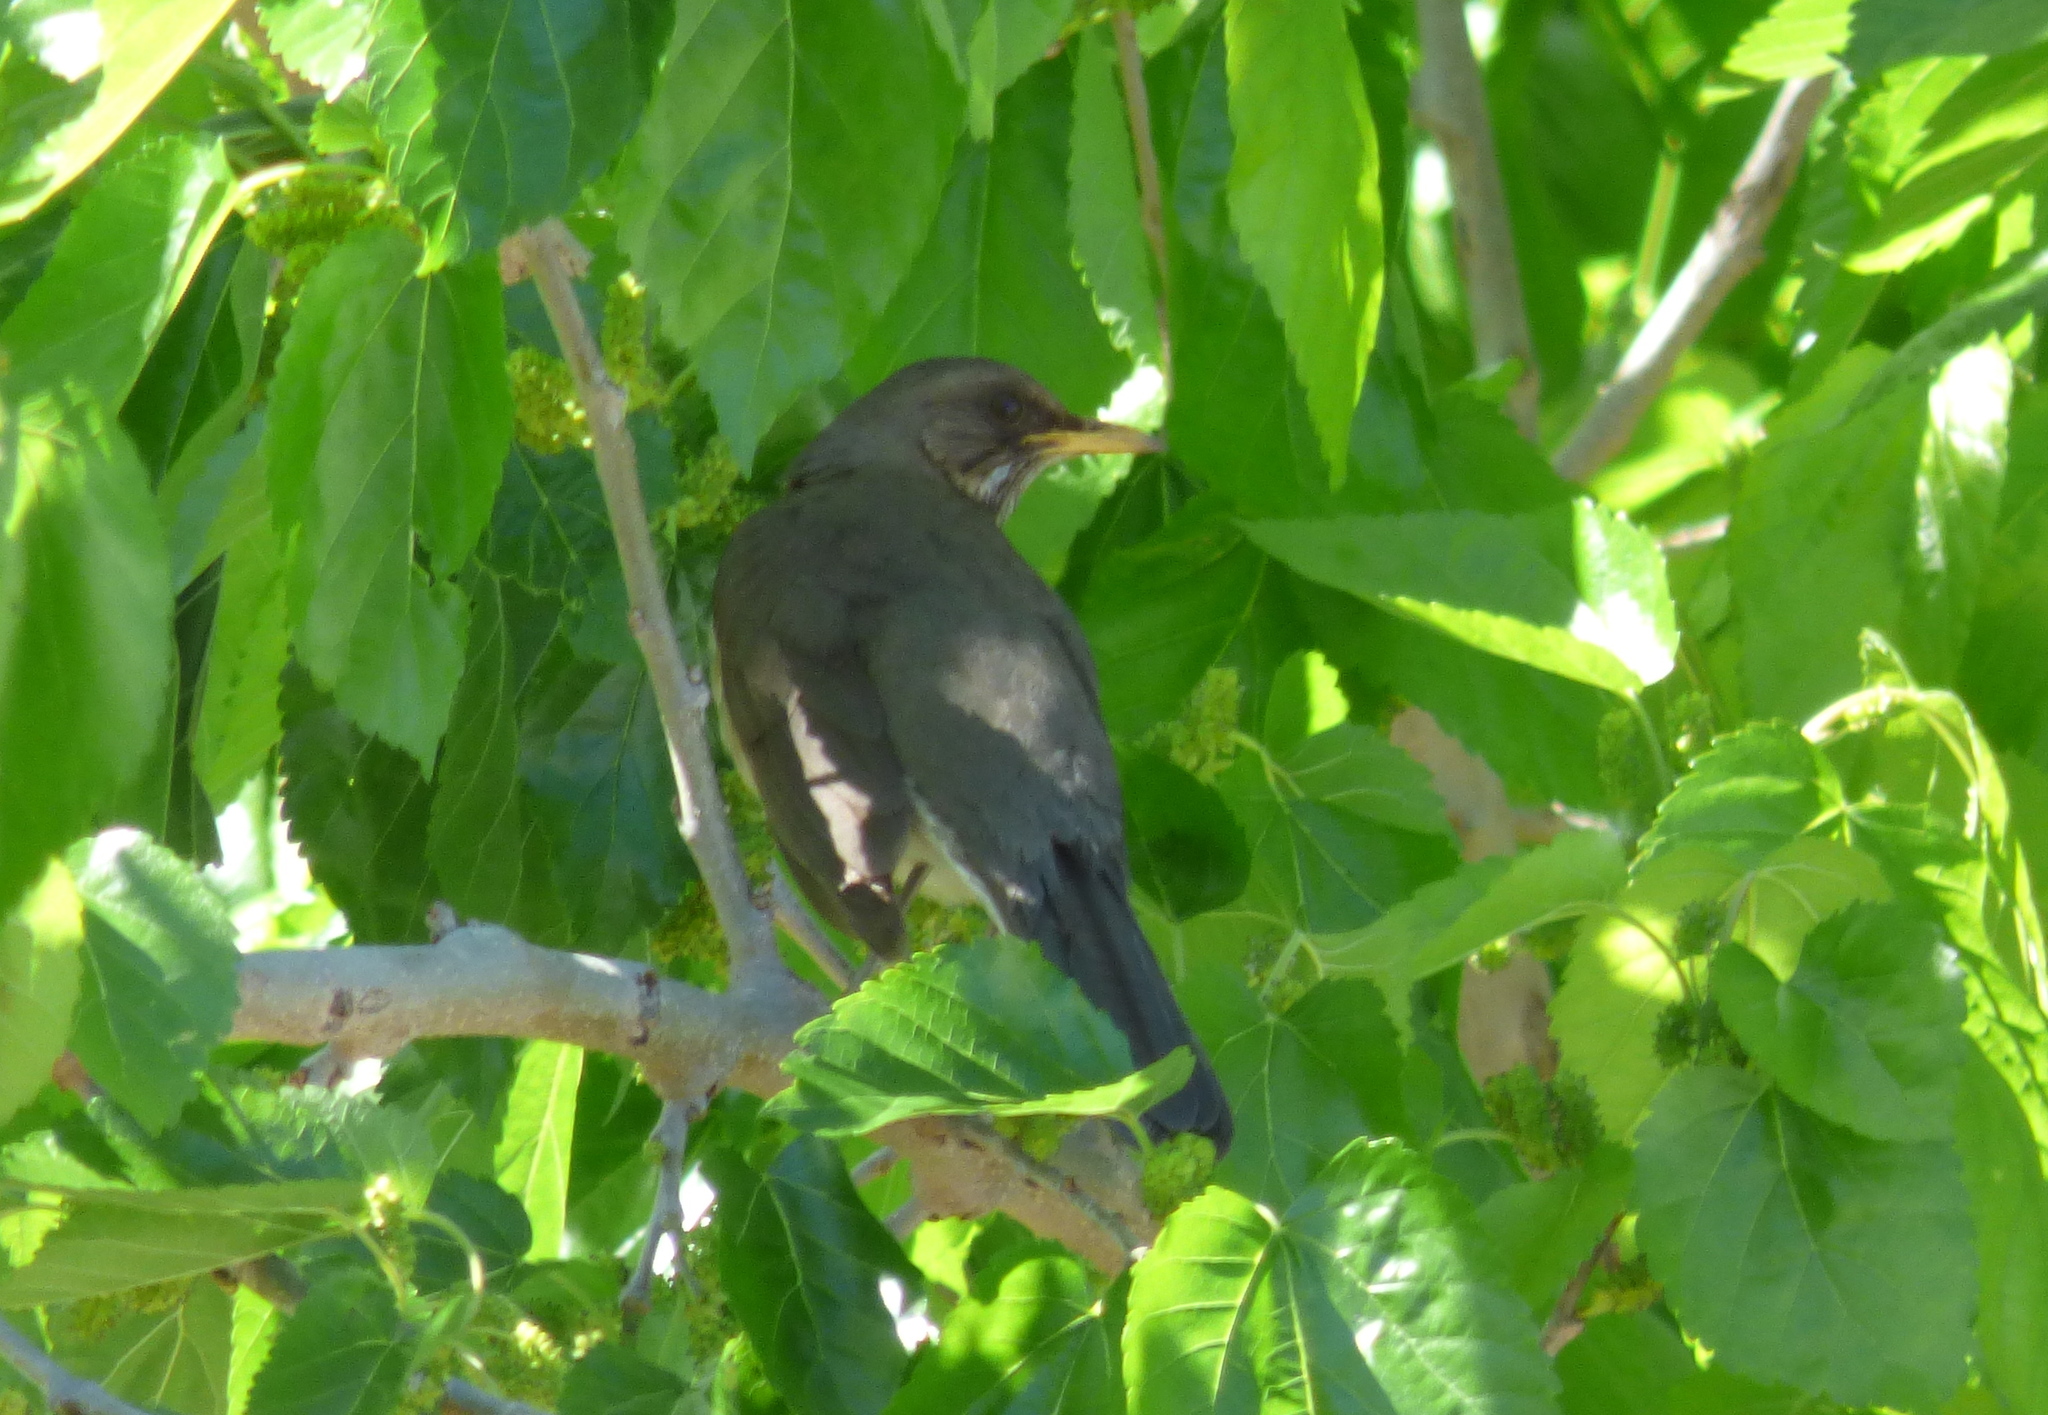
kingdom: Animalia
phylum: Chordata
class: Aves
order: Passeriformes
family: Turdidae
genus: Turdus
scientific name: Turdus amaurochalinus
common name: Creamy-bellied thrush
